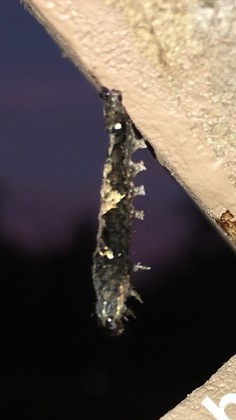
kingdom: Animalia
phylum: Arthropoda
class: Insecta
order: Lepidoptera
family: Noctuidae
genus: Elaphria
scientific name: Elaphria versicolor
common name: Fir harlequin
